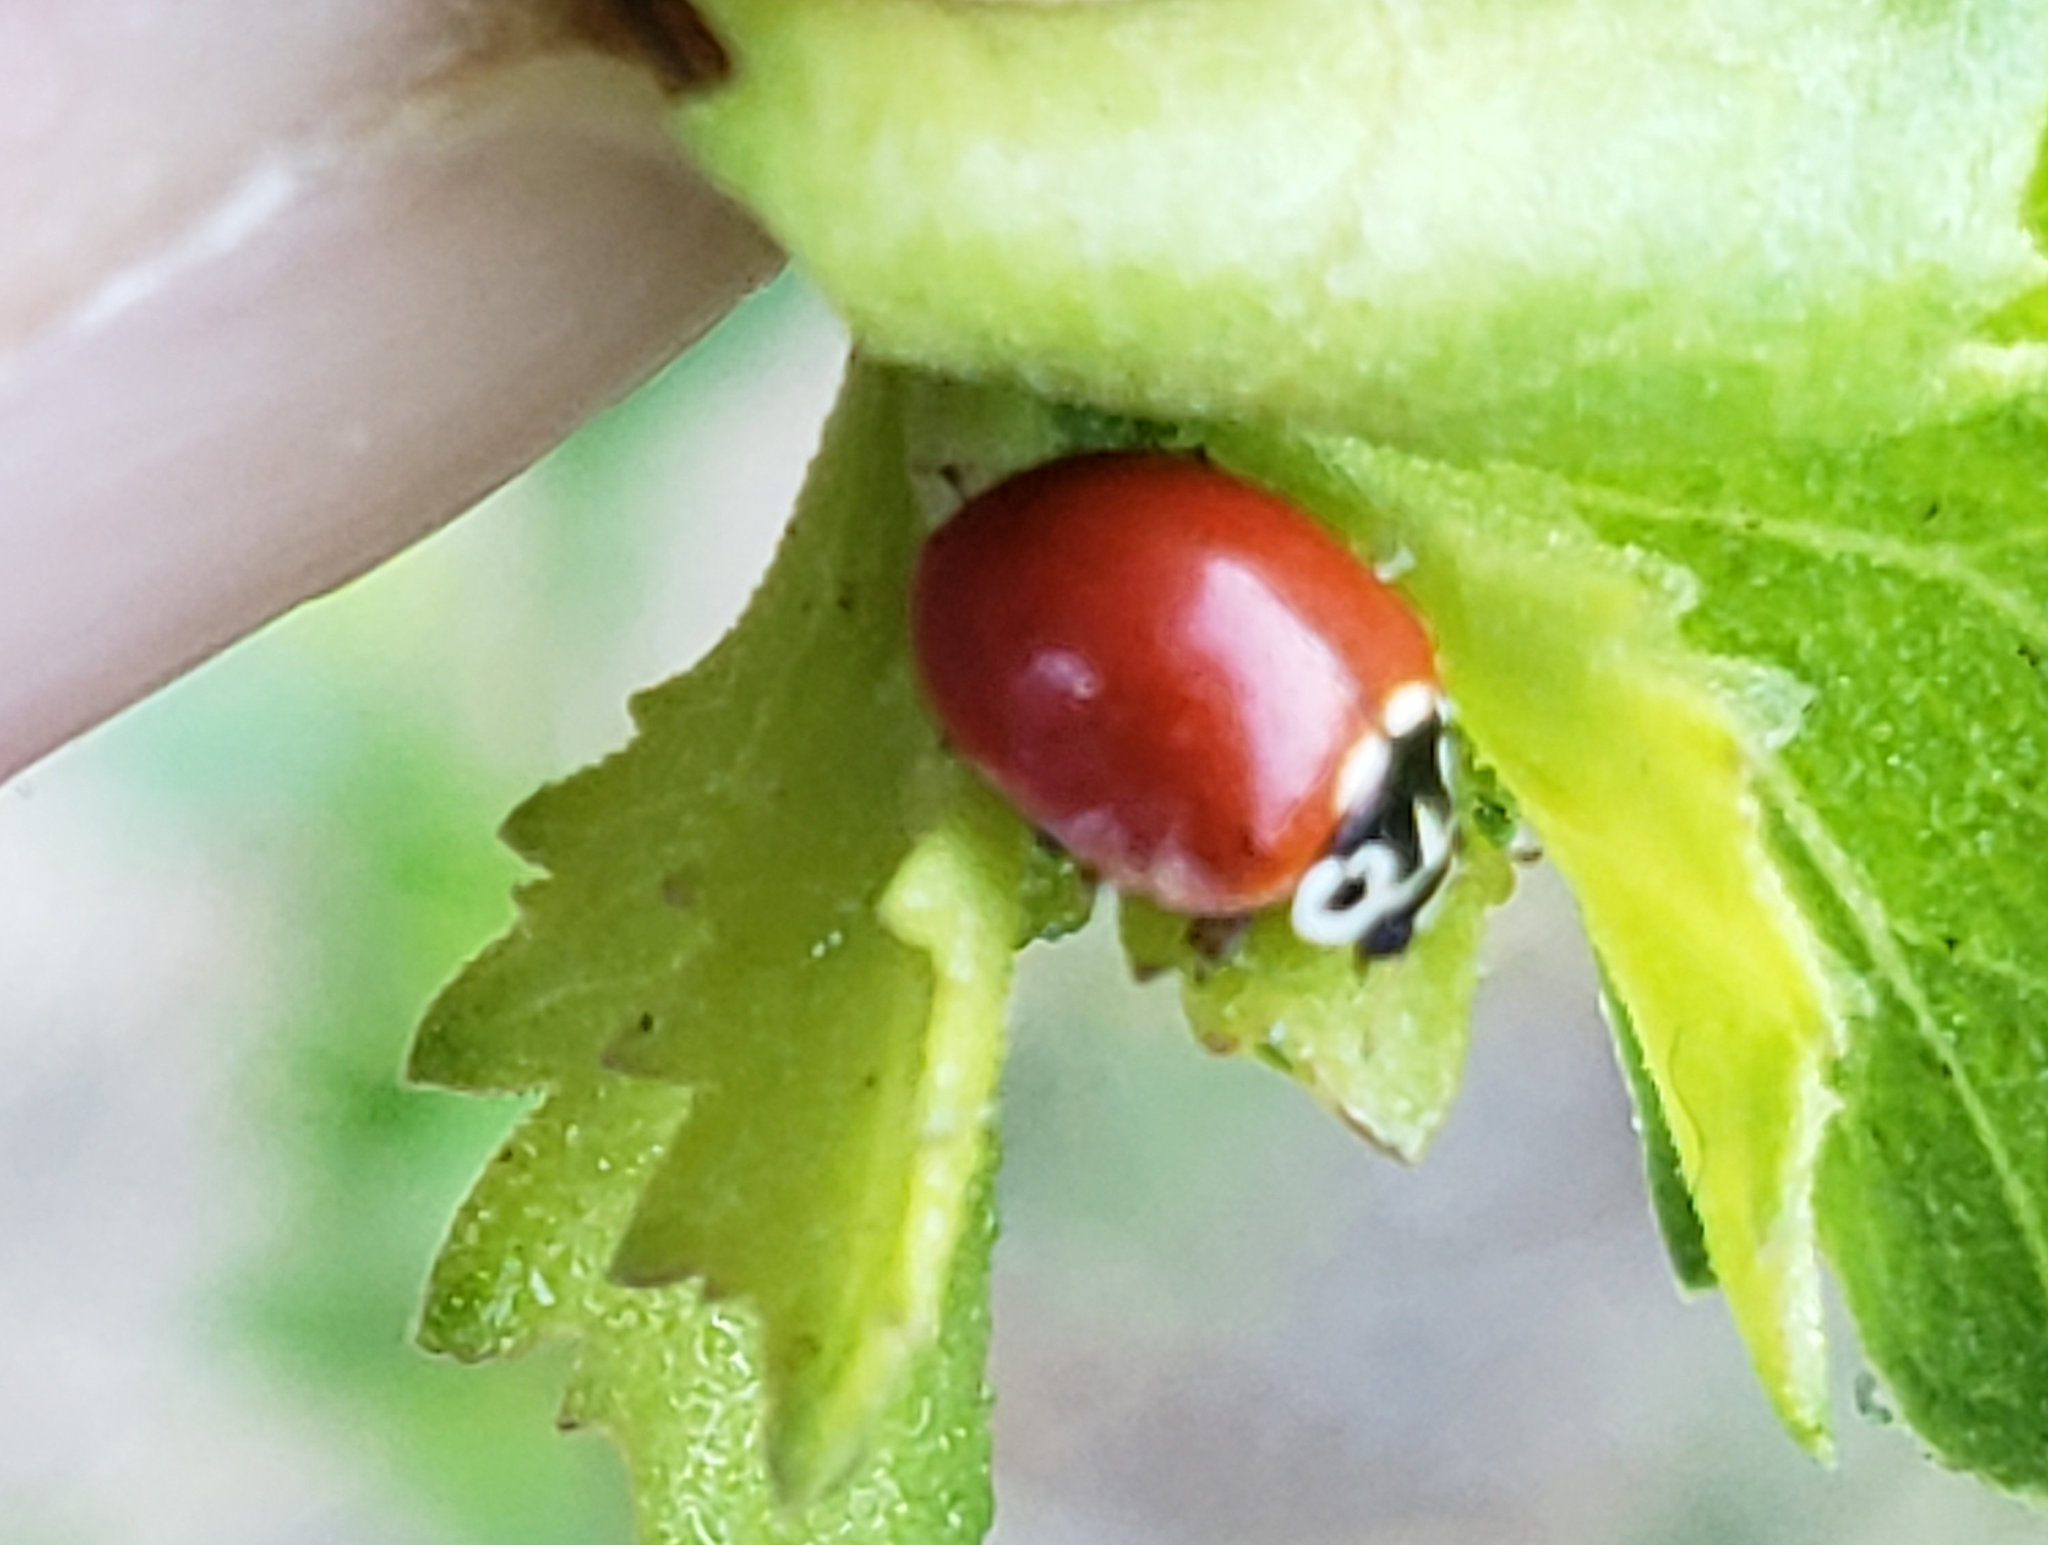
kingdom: Animalia
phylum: Arthropoda
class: Insecta
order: Coleoptera
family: Coccinellidae
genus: Cycloneda
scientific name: Cycloneda polita
